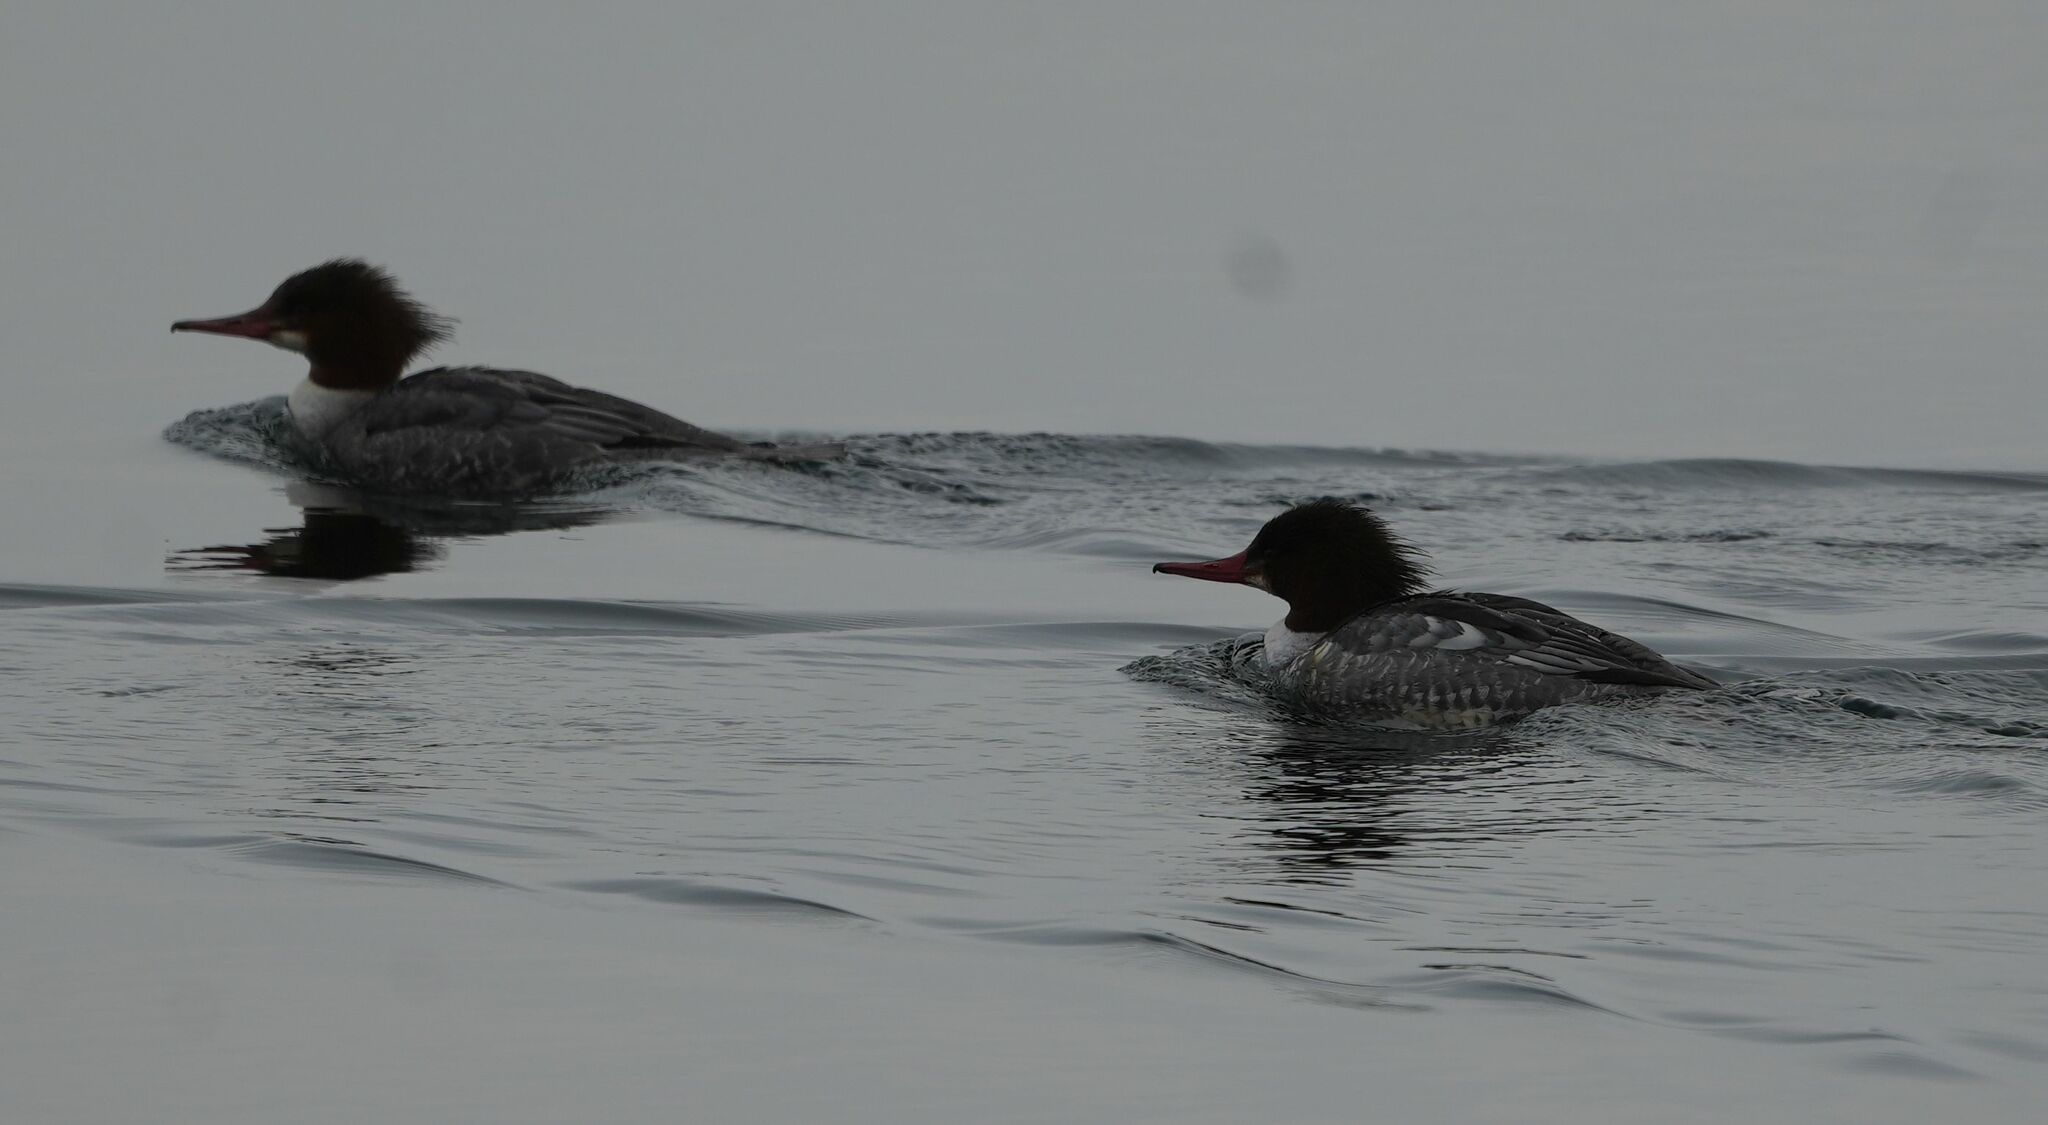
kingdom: Animalia
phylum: Chordata
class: Aves
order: Anseriformes
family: Anatidae
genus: Mergus
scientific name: Mergus merganser
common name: Common merganser
